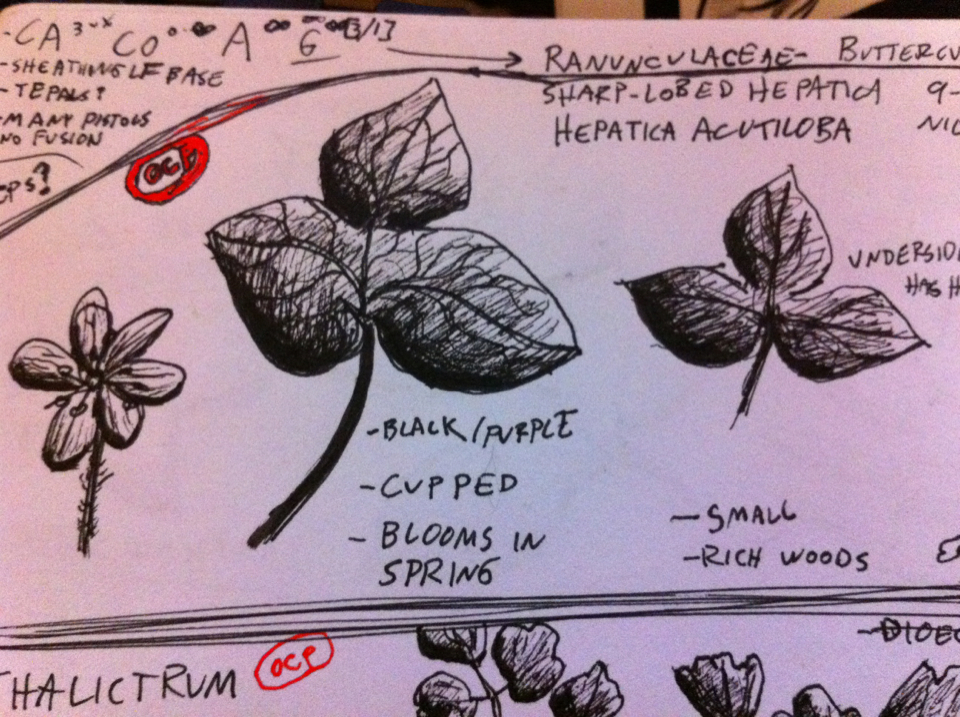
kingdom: Plantae
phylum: Tracheophyta
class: Magnoliopsida
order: Ranunculales
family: Ranunculaceae
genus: Hepatica
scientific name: Hepatica acutiloba
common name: Sharp-lobed hepatica
